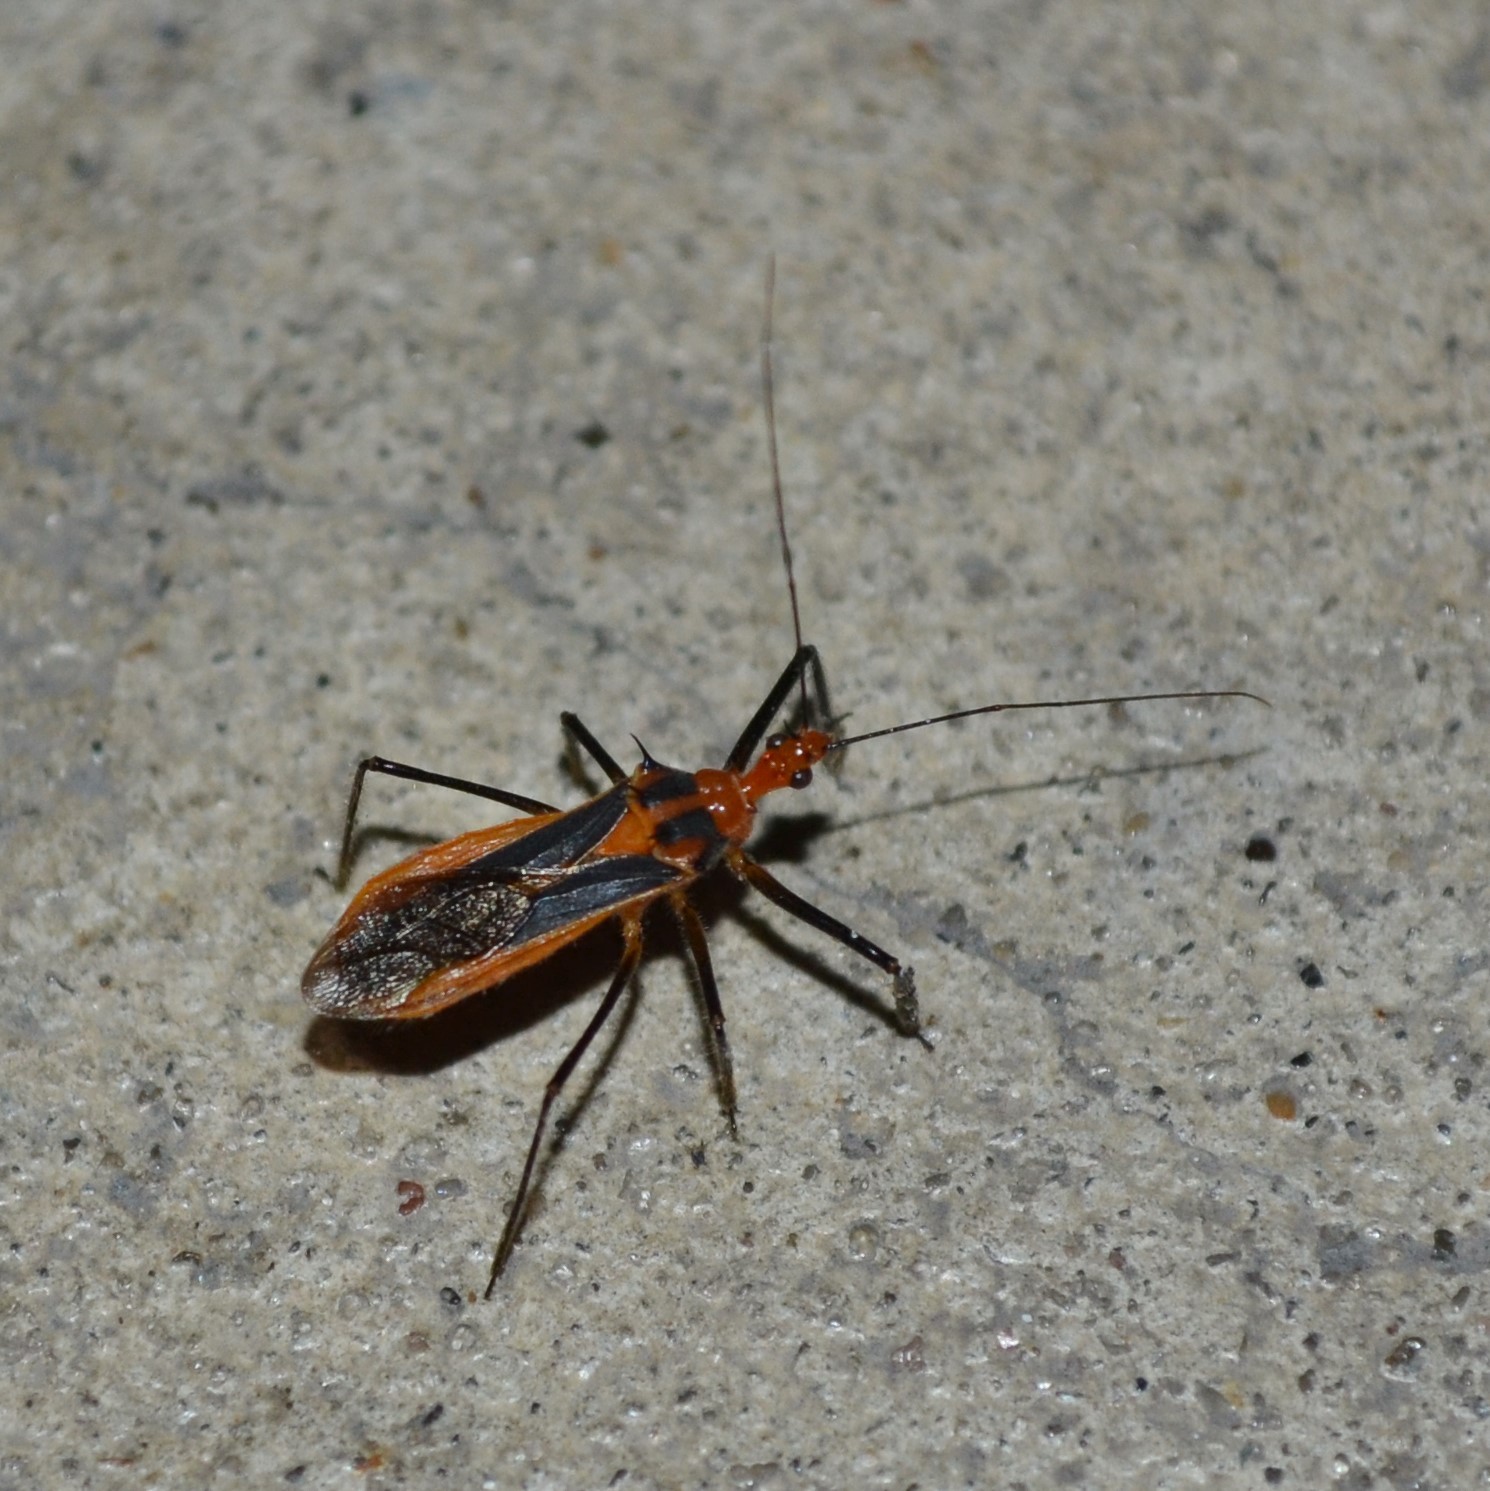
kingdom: Animalia
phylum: Arthropoda
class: Insecta
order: Hemiptera
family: Reduviidae
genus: Repipta
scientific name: Repipta taurus
